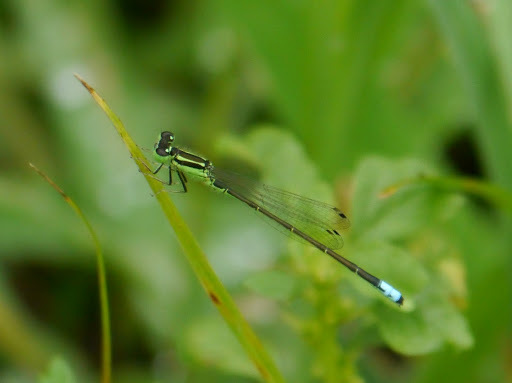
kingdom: Animalia
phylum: Arthropoda
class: Insecta
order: Odonata
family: Coenagrionidae
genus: Ischnura
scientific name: Ischnura verticalis
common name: Eastern forktail
